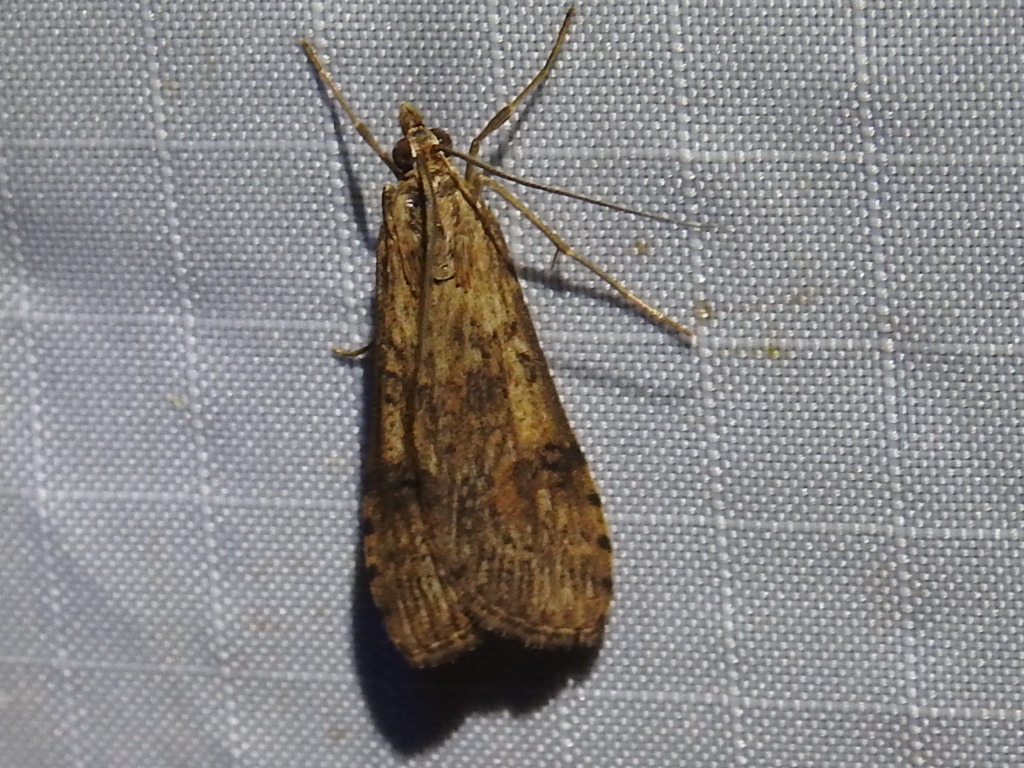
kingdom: Animalia
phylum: Arthropoda
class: Insecta
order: Lepidoptera
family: Crambidae
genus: Nomophila
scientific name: Nomophila nearctica
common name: American rush veneer
